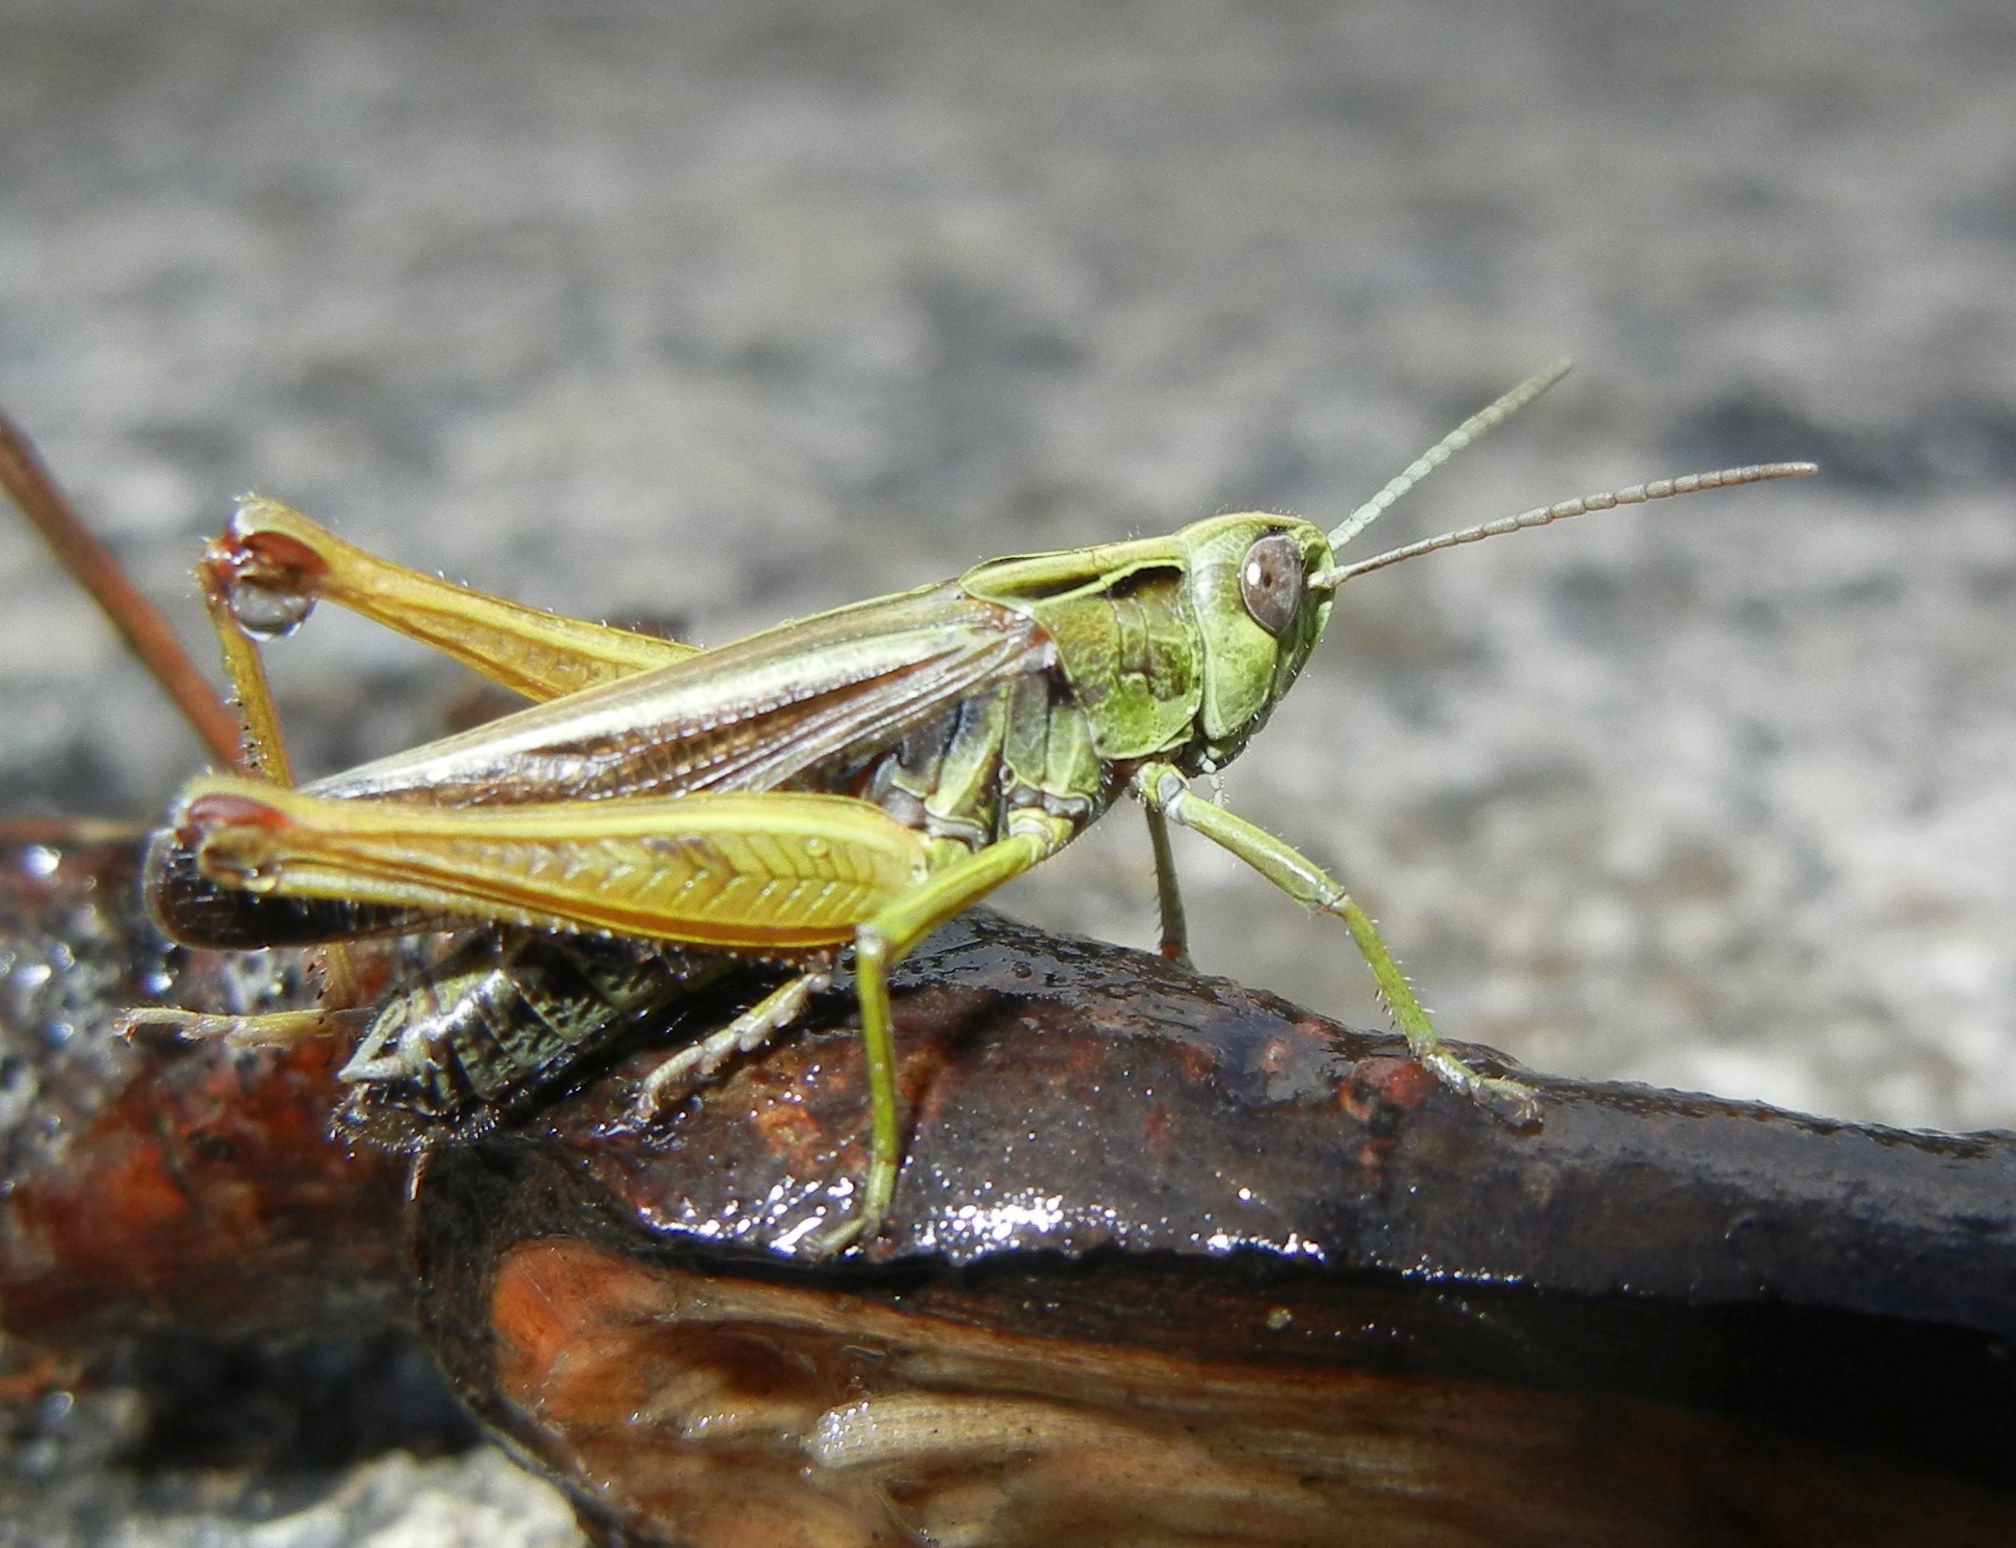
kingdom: Animalia
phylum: Arthropoda
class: Insecta
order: Orthoptera
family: Acrididae
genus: Omocestus
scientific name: Omocestus viridulus
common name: Common green grasshopper
